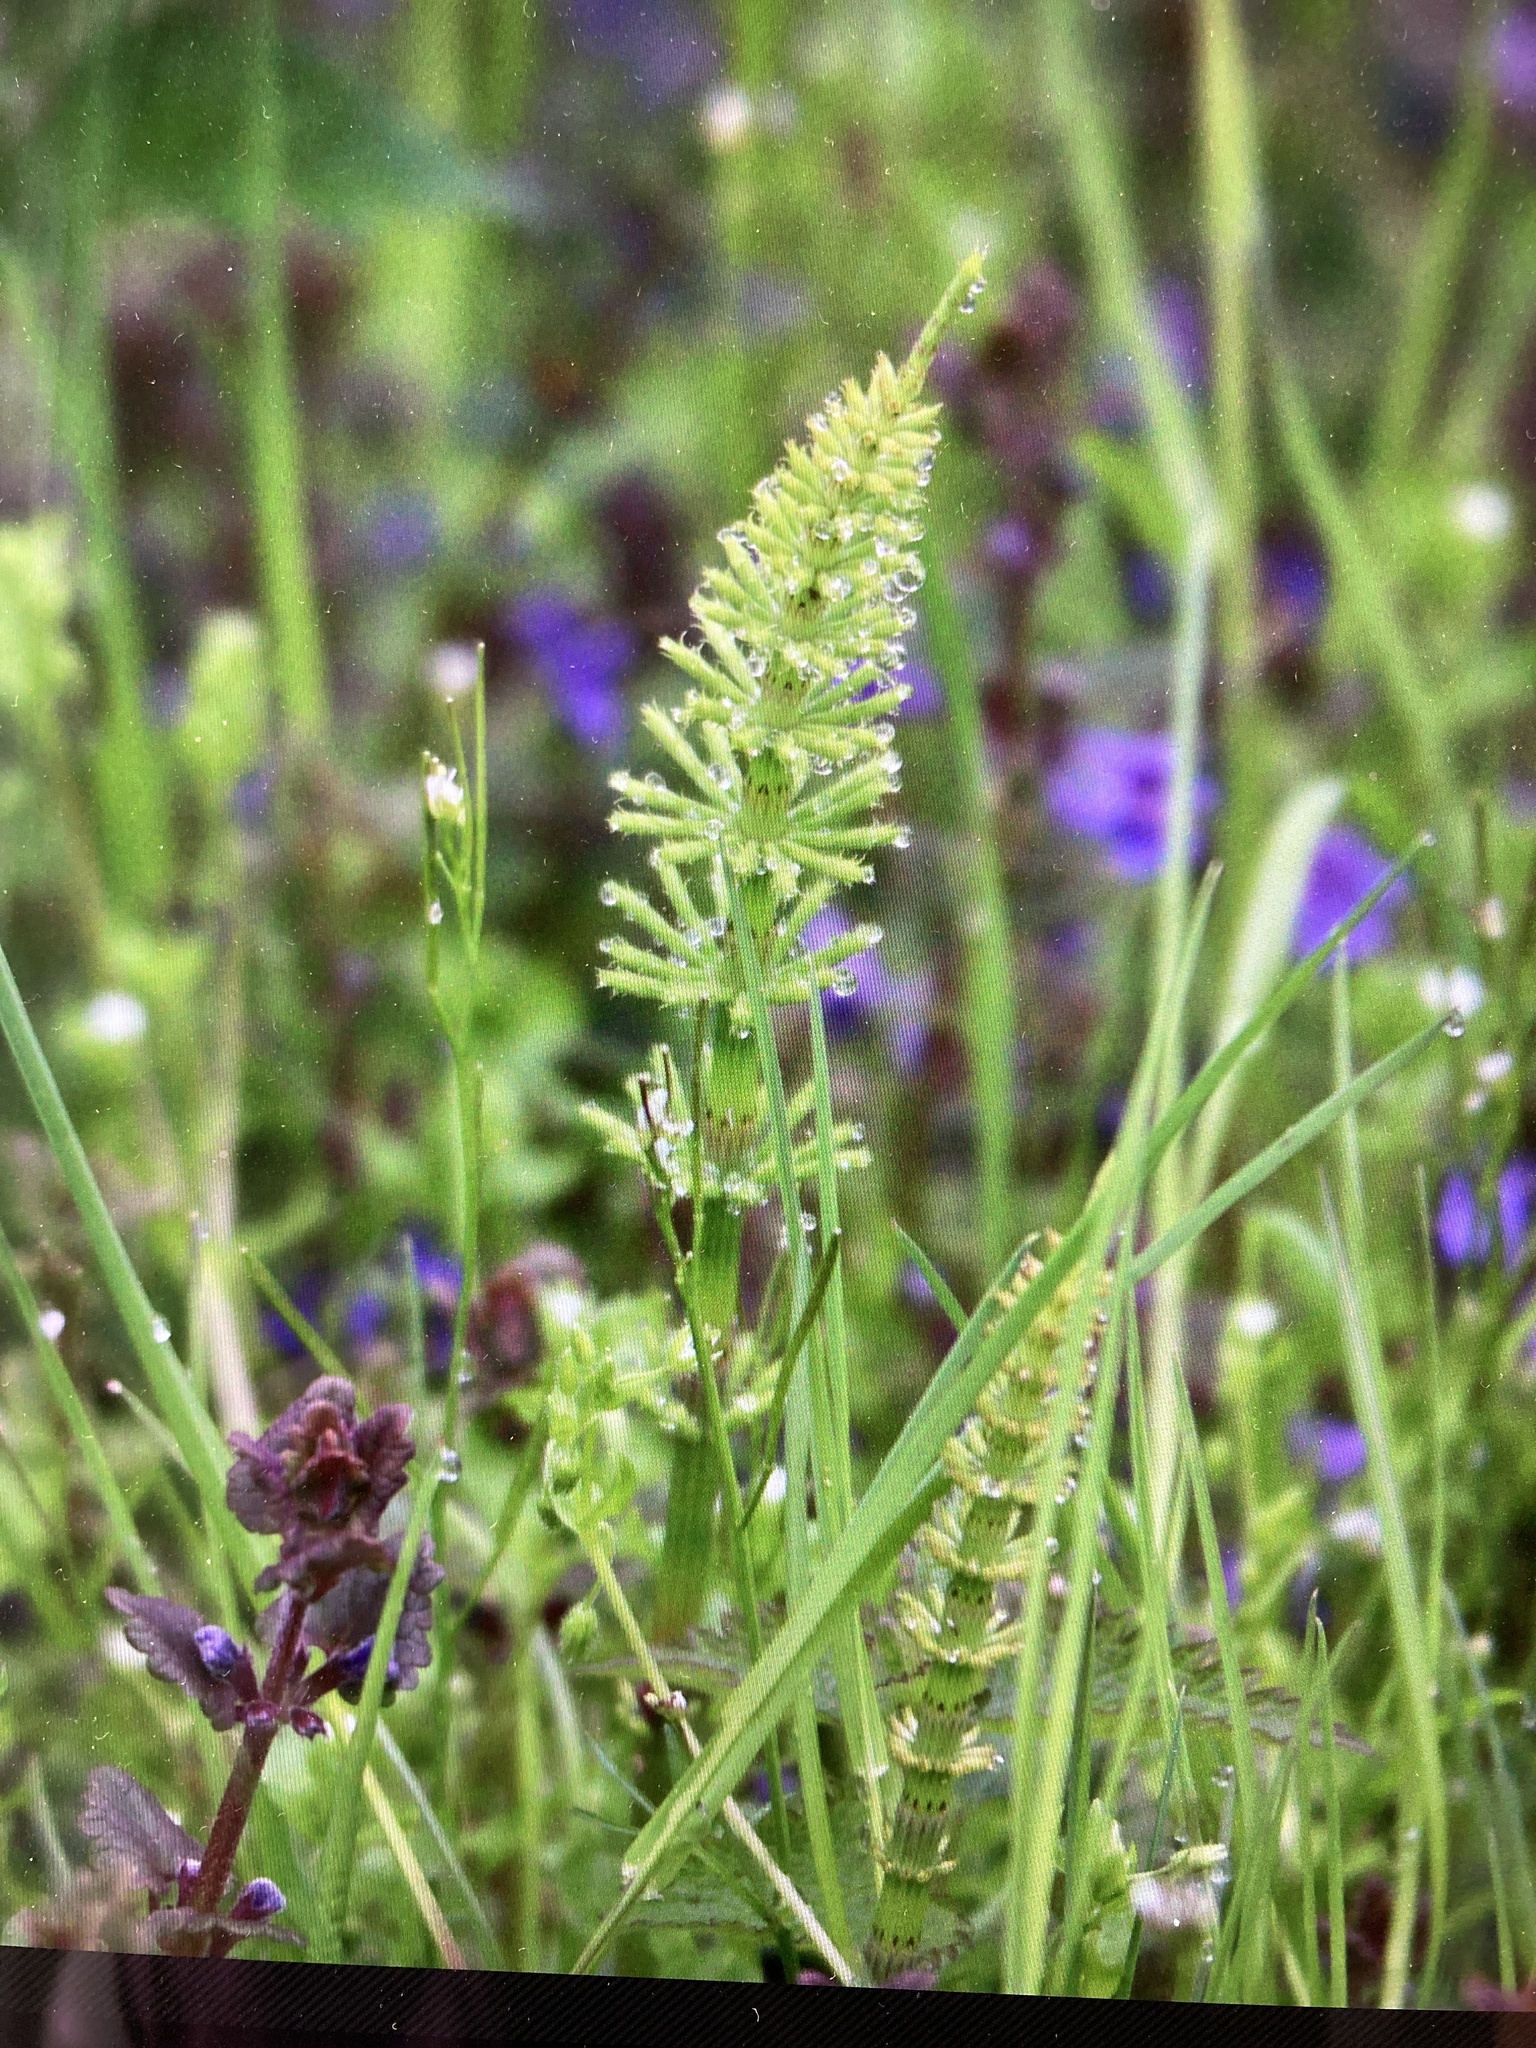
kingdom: Plantae
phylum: Tracheophyta
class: Polypodiopsida
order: Equisetales
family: Equisetaceae
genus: Equisetum
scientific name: Equisetum arvense
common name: Field horsetail
